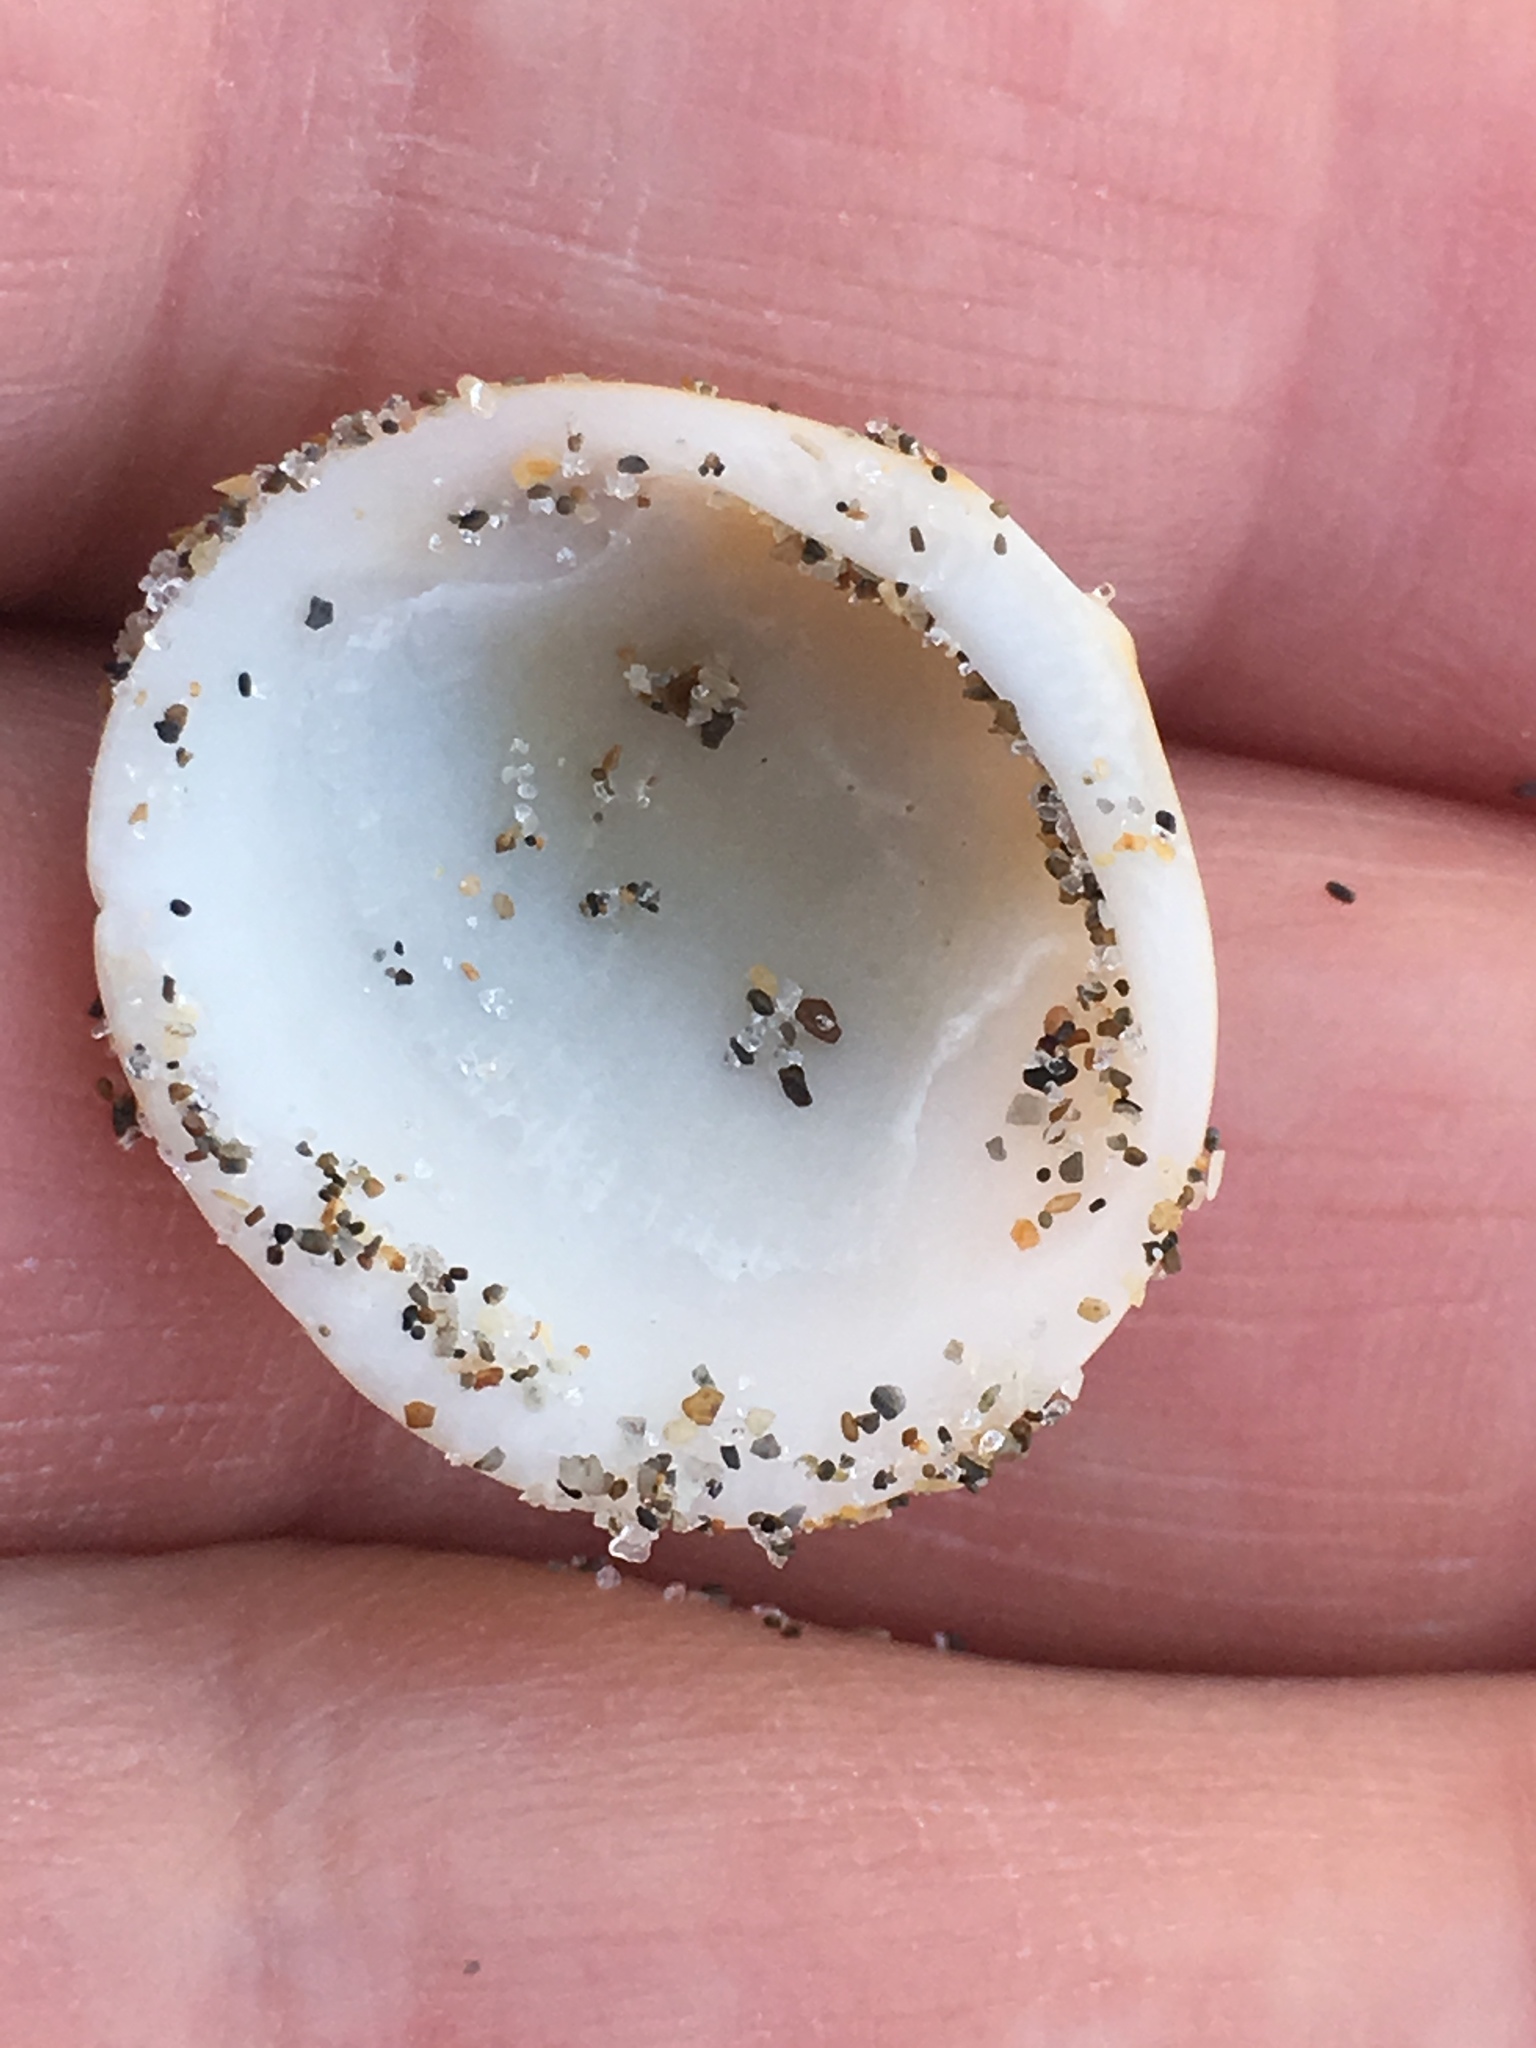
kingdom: Animalia
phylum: Mollusca
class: Bivalvia
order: Arcida
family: Glycymerididae
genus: Glycymeris
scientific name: Glycymeris spectralis
